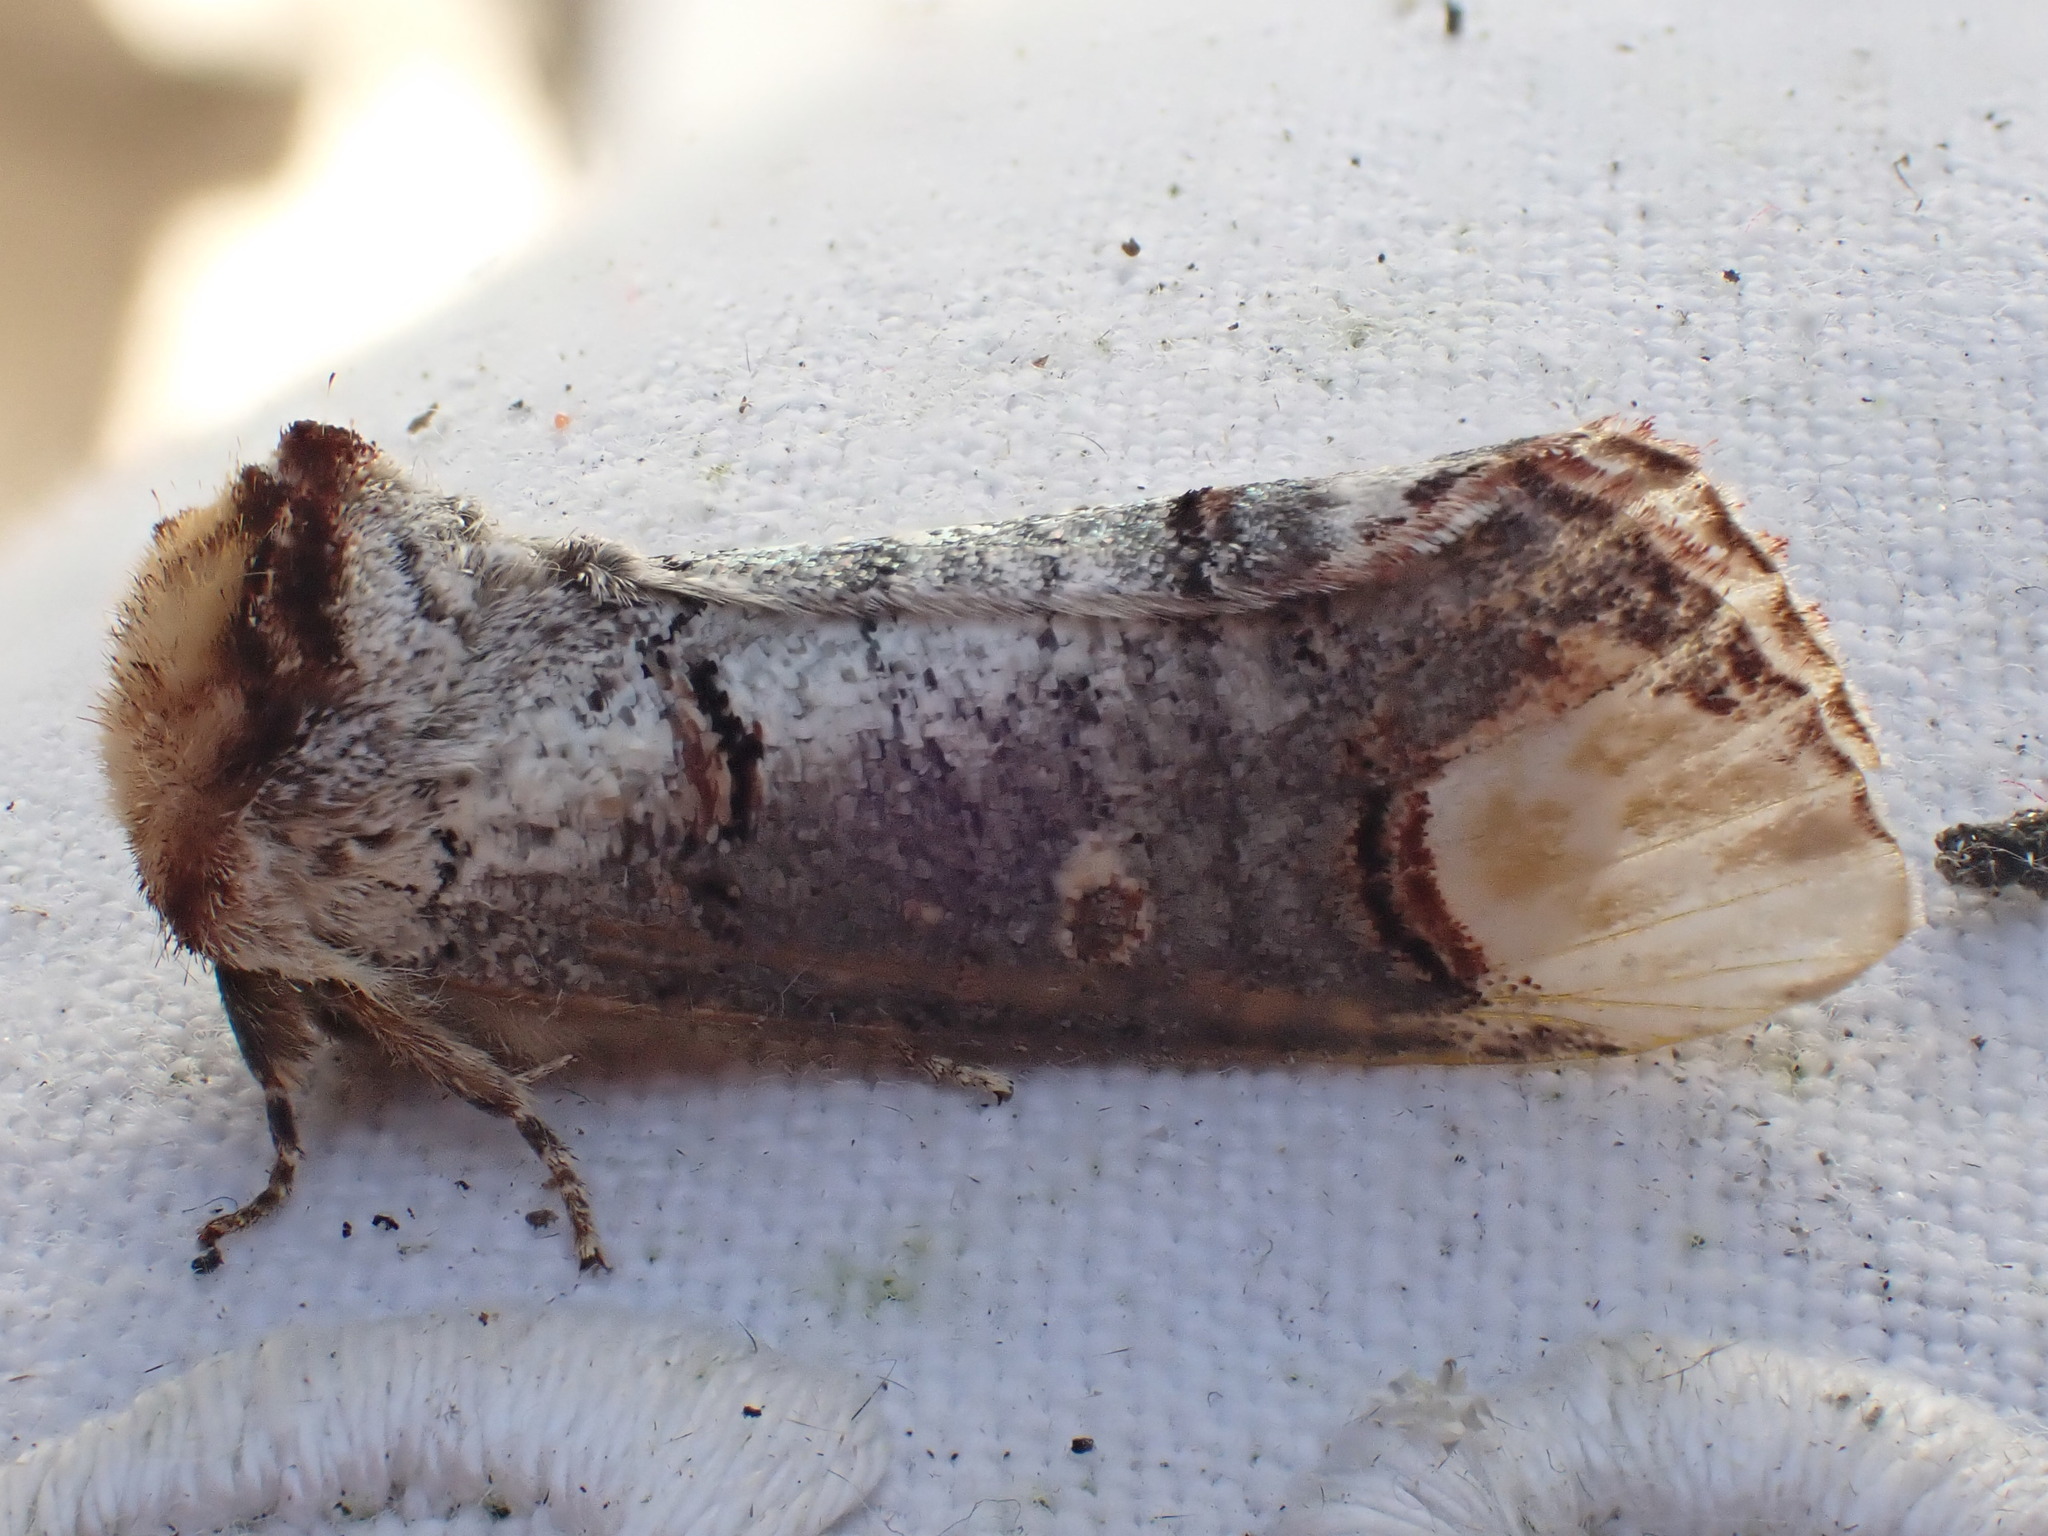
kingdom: Animalia
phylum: Arthropoda
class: Insecta
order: Lepidoptera
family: Notodontidae
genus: Phalera
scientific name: Phalera bucephala
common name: Buff-tip
